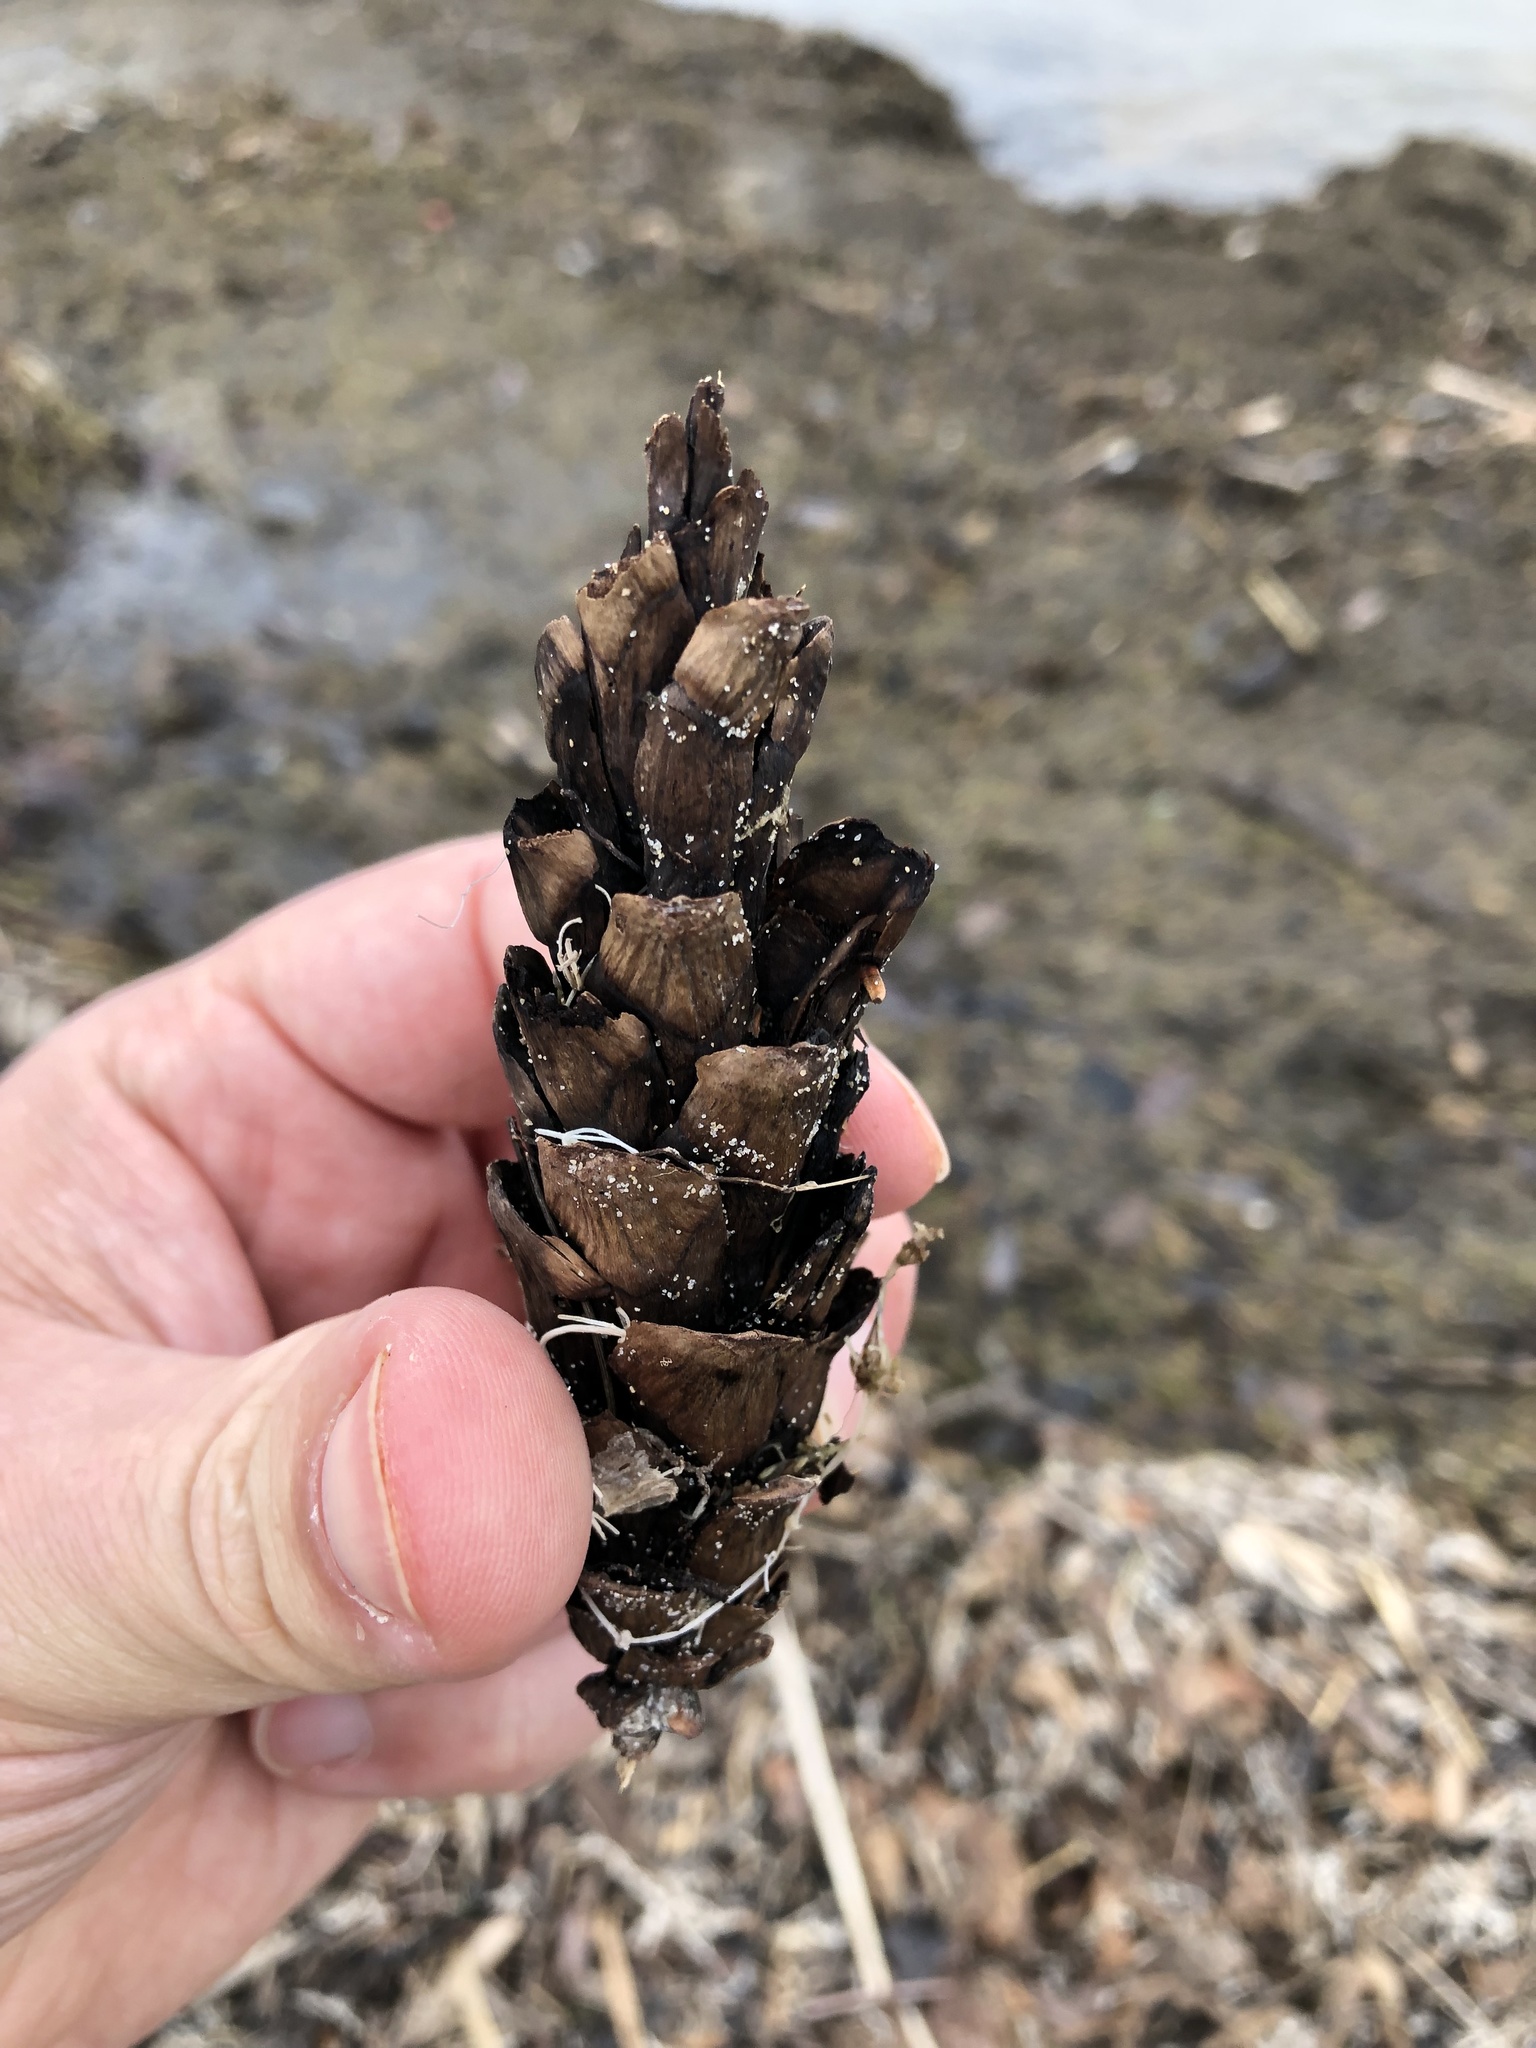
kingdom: Plantae
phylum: Tracheophyta
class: Pinopsida
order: Pinales
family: Pinaceae
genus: Pinus
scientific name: Pinus strobus
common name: Weymouth pine
